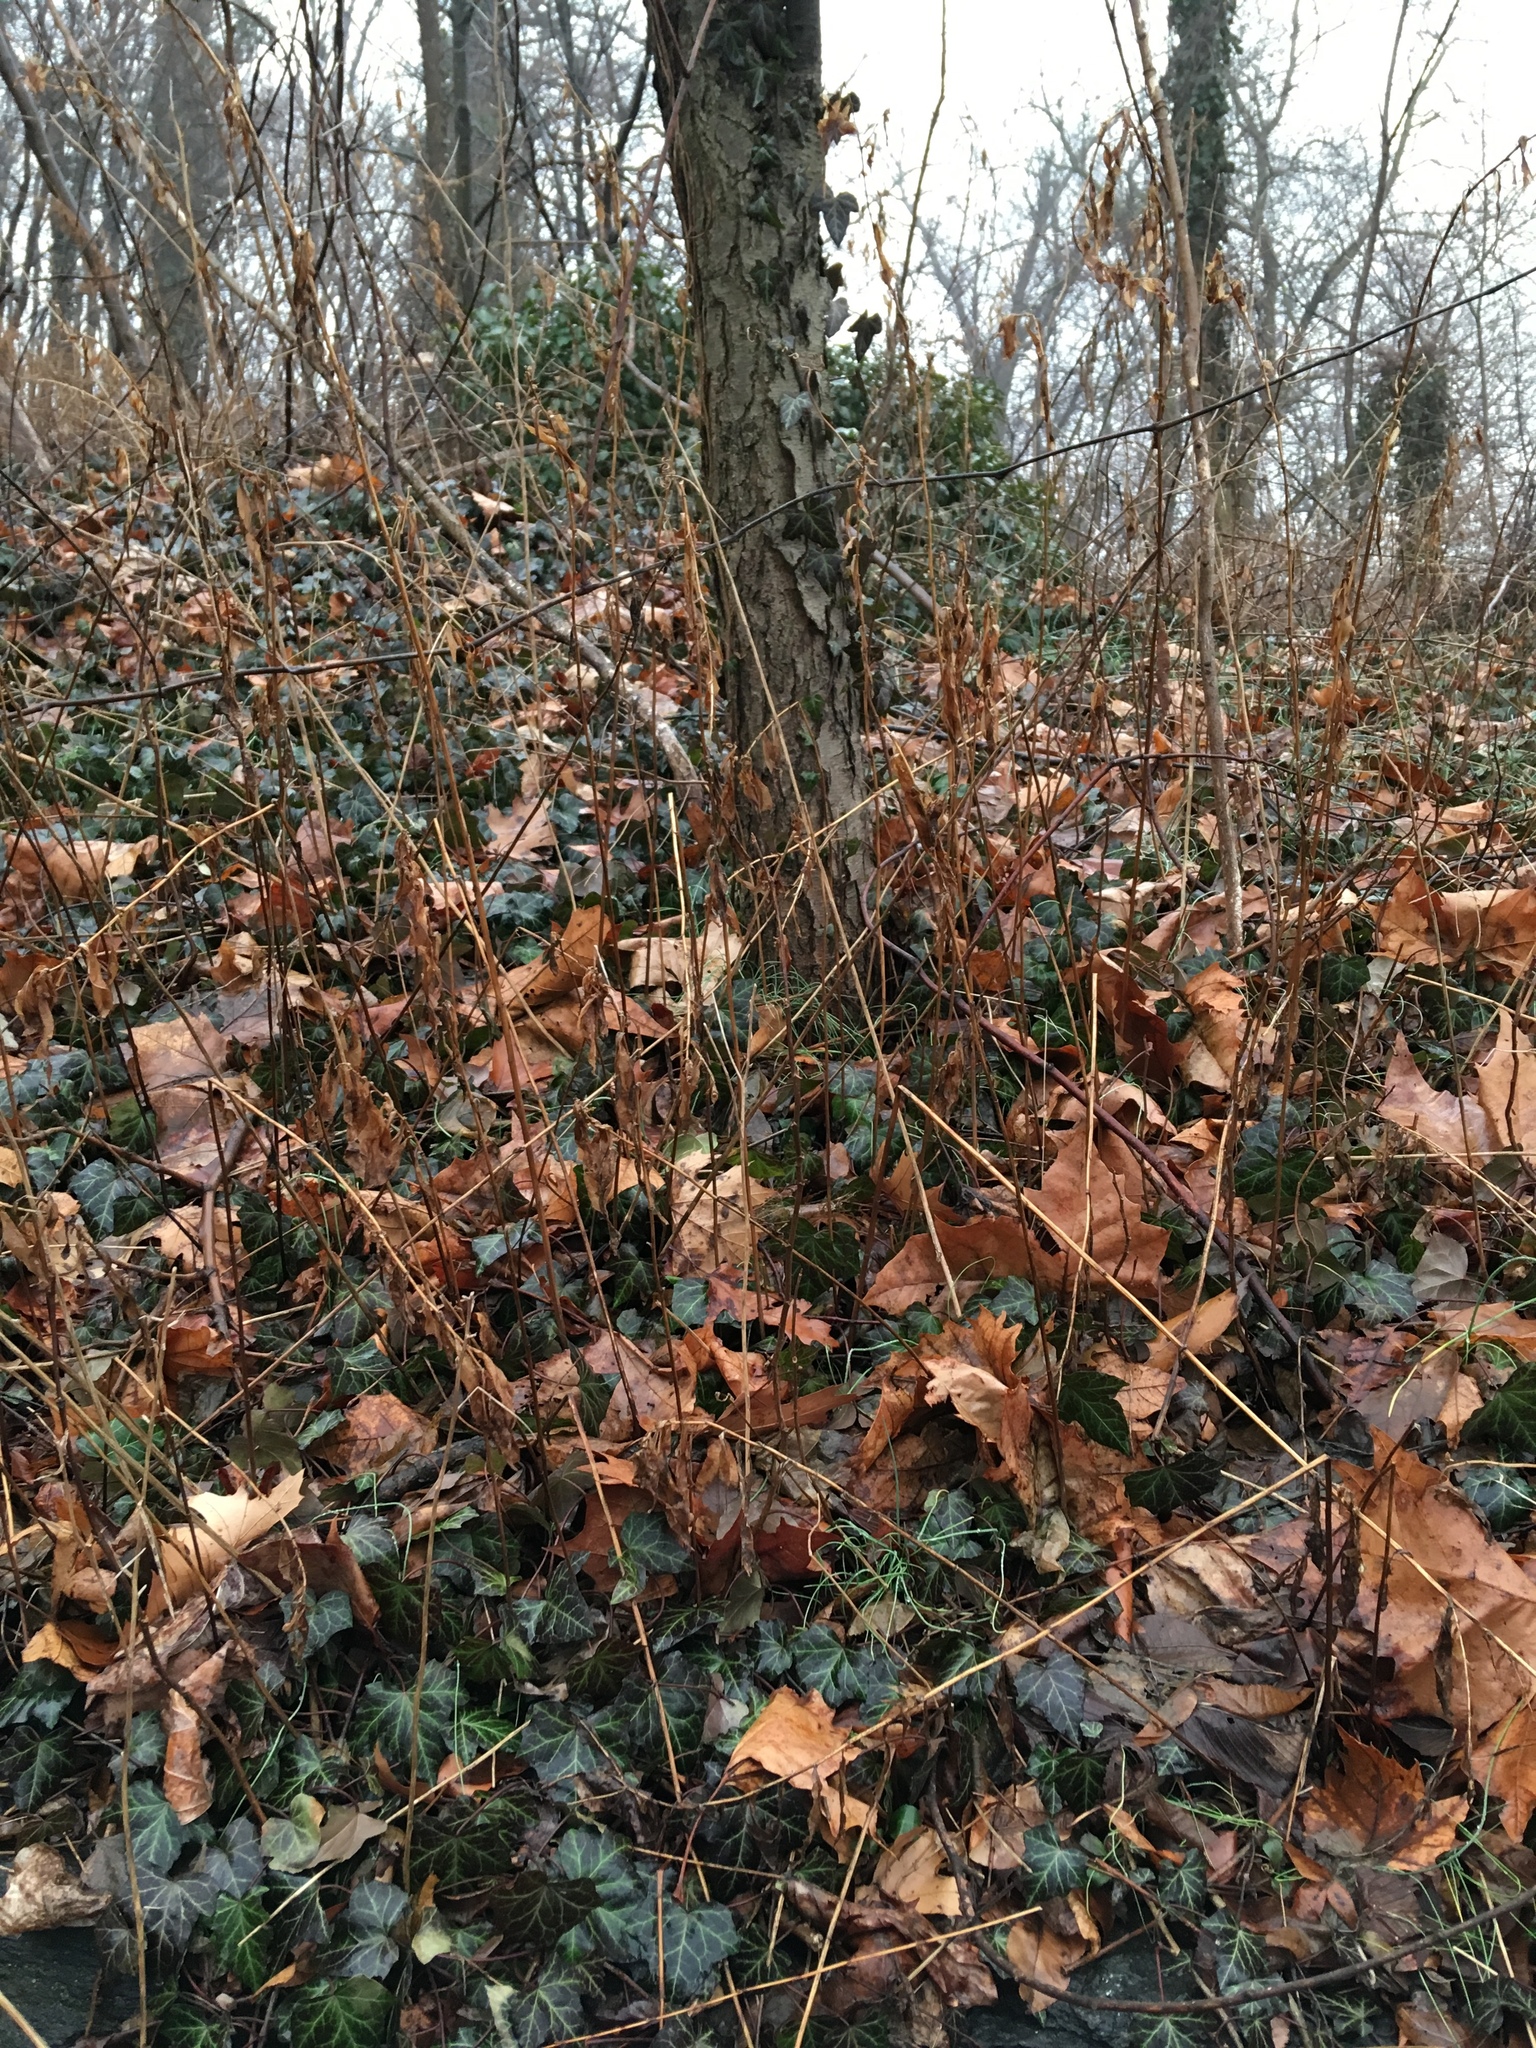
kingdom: Plantae
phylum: Tracheophyta
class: Magnoliopsida
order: Apiales
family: Araliaceae
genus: Hedera
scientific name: Hedera helix
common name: Ivy
